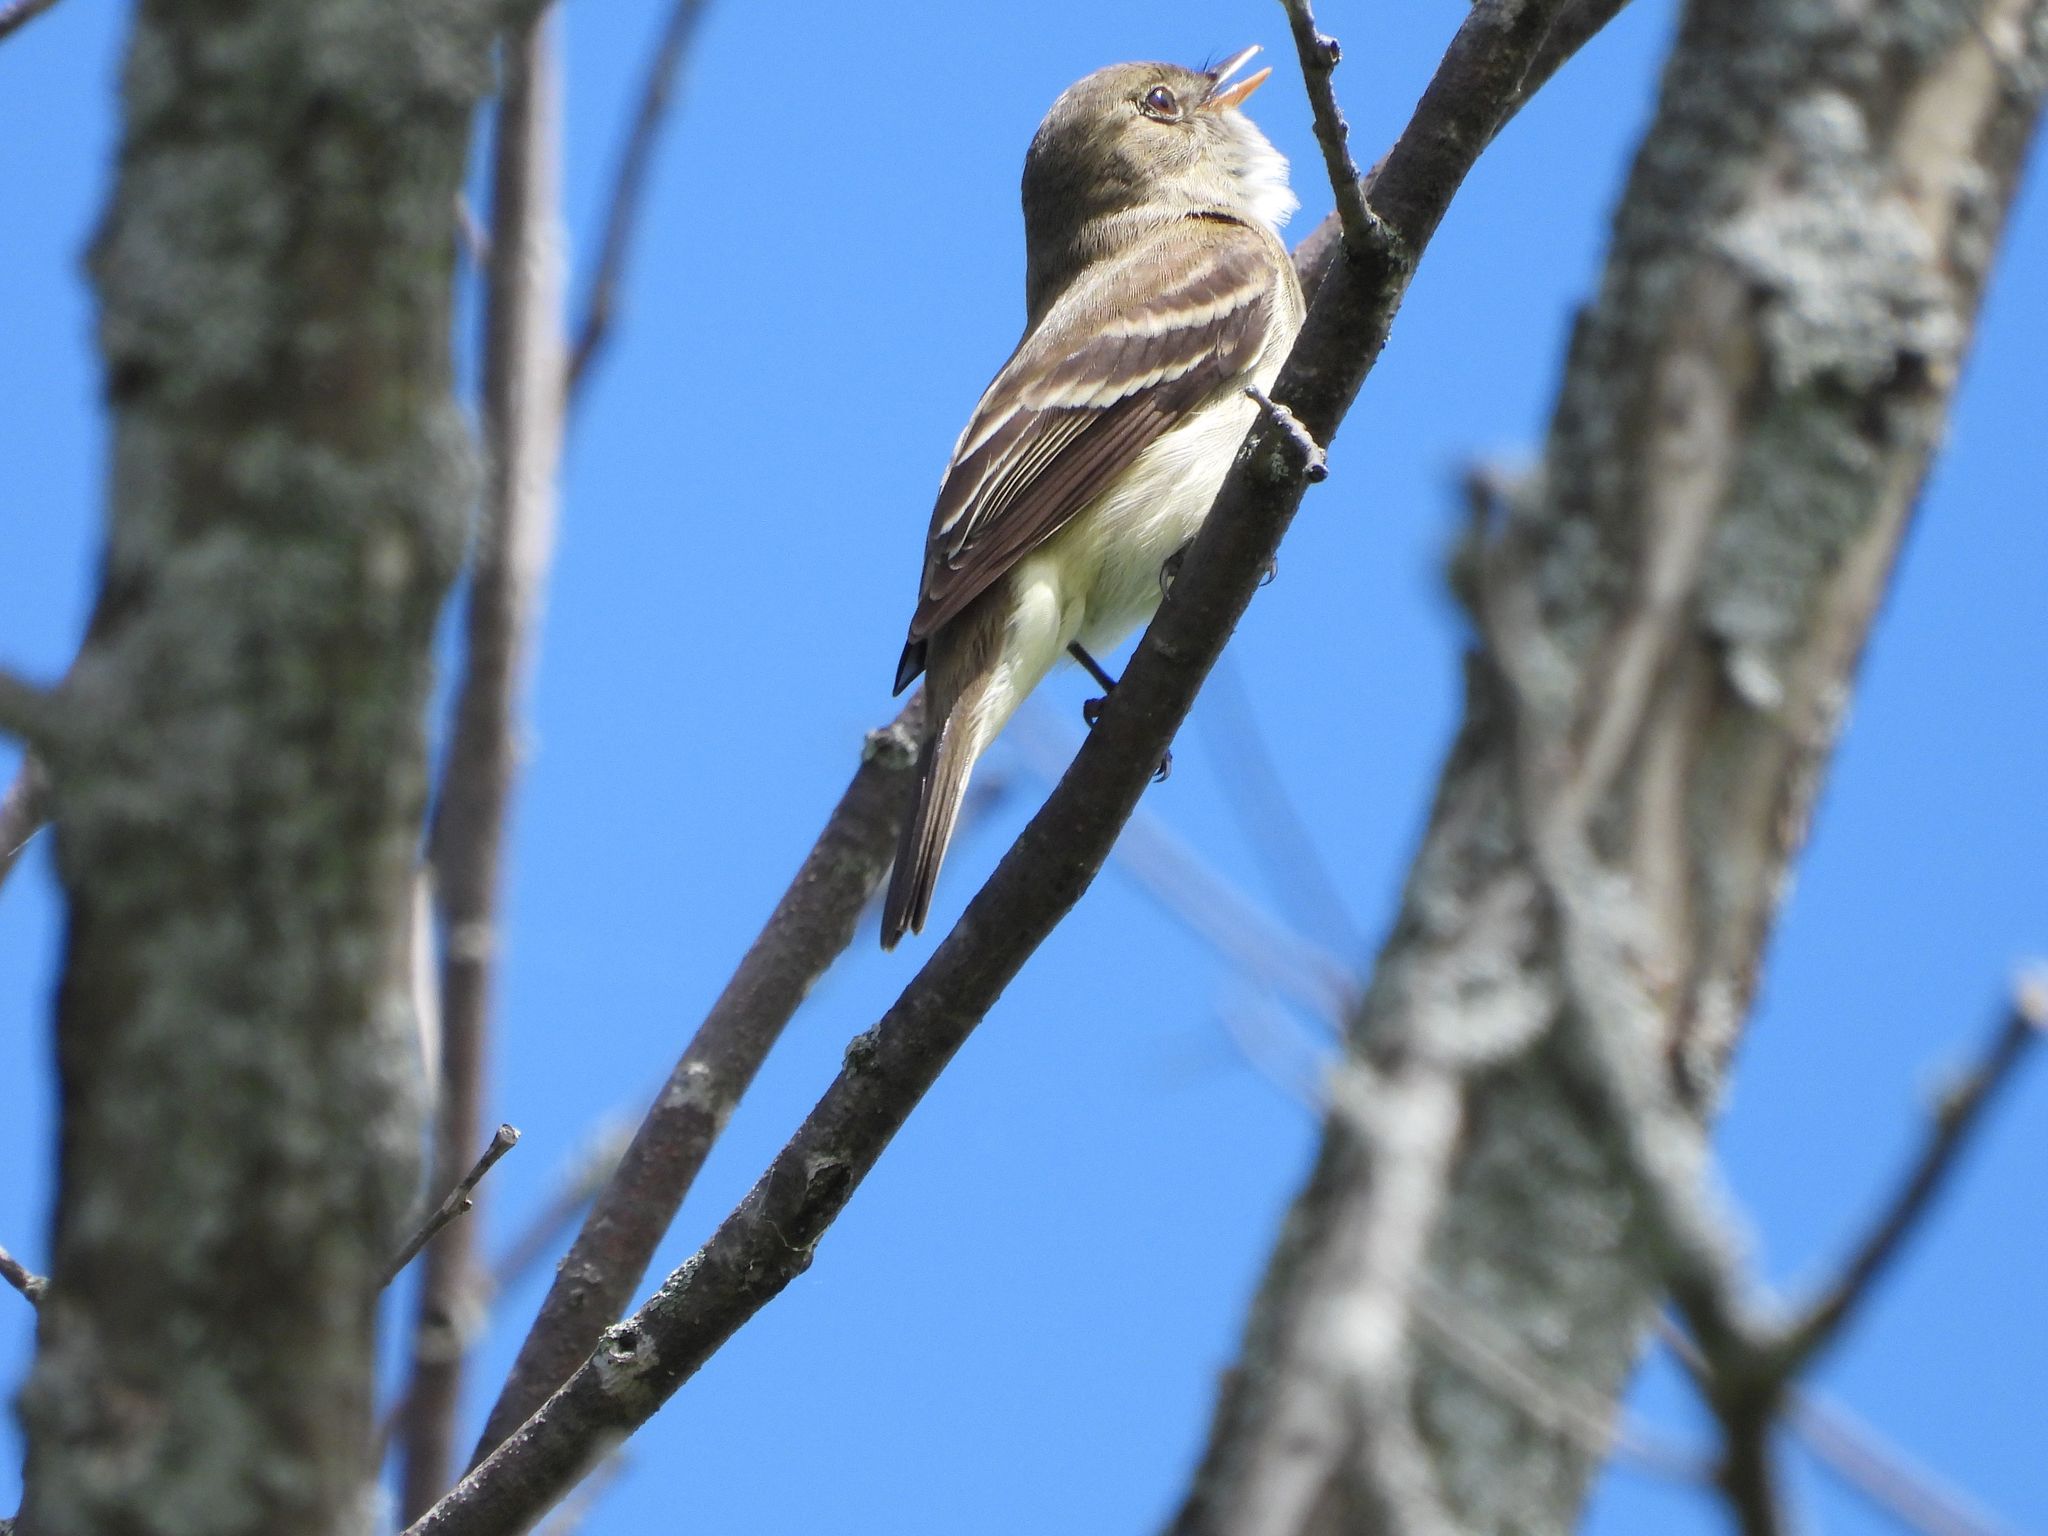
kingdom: Animalia
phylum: Chordata
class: Aves
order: Passeriformes
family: Tyrannidae
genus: Empidonax
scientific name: Empidonax alnorum
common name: Alder flycatcher
